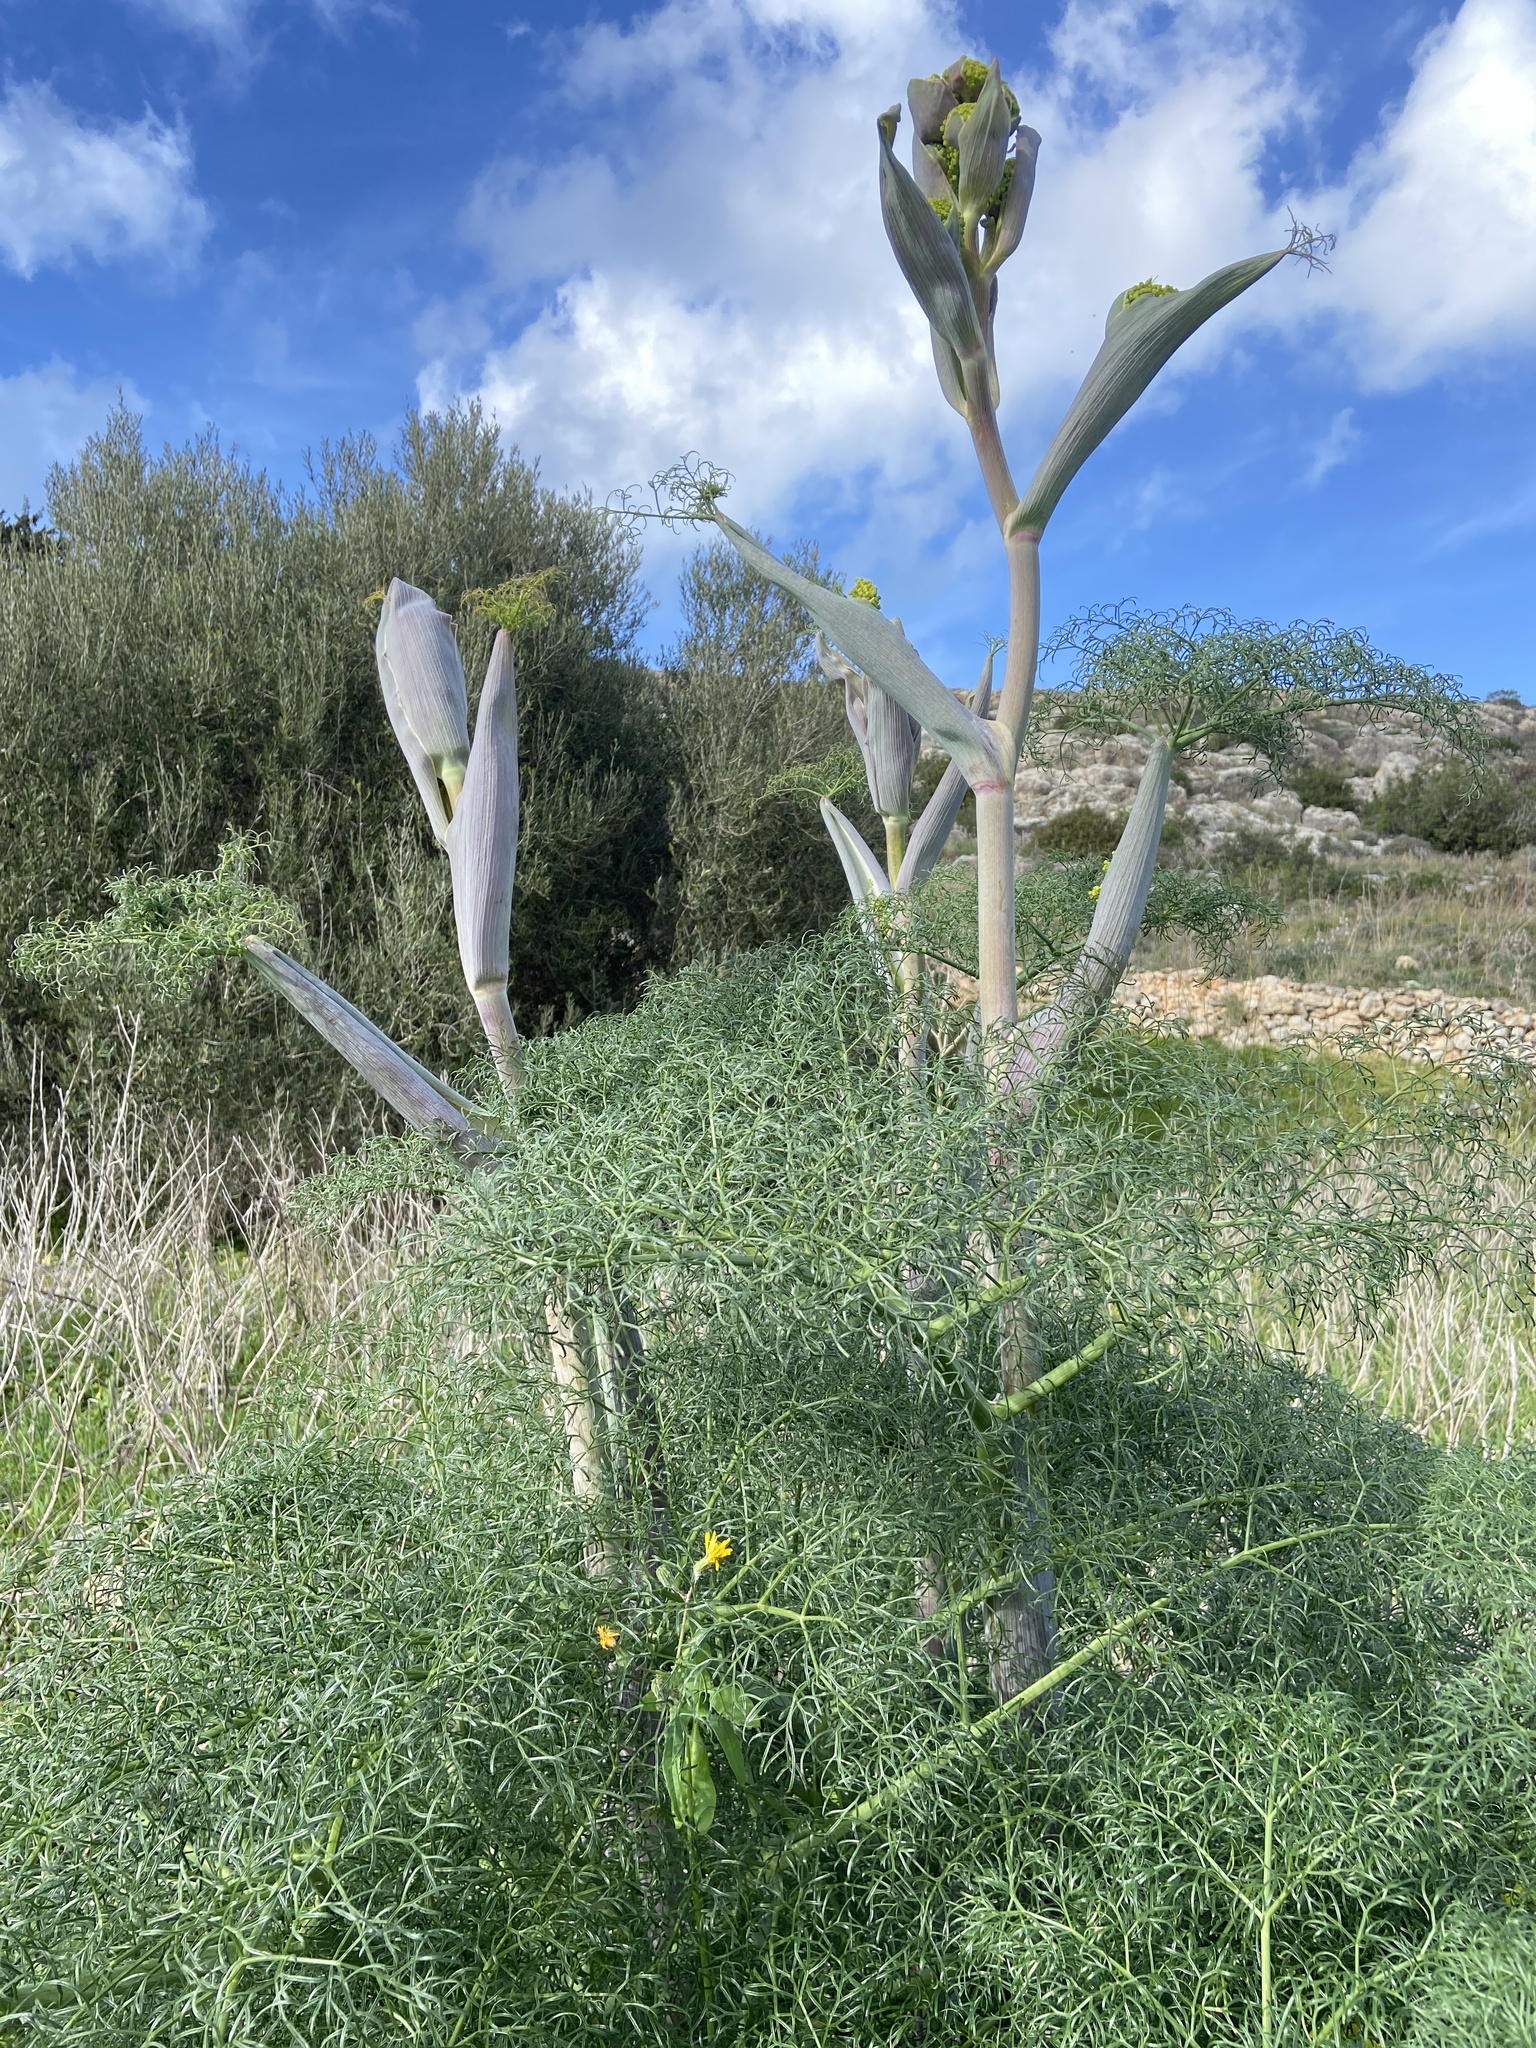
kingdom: Plantae
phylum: Tracheophyta
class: Magnoliopsida
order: Apiales
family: Apiaceae
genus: Ferula
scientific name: Ferula melitensis
